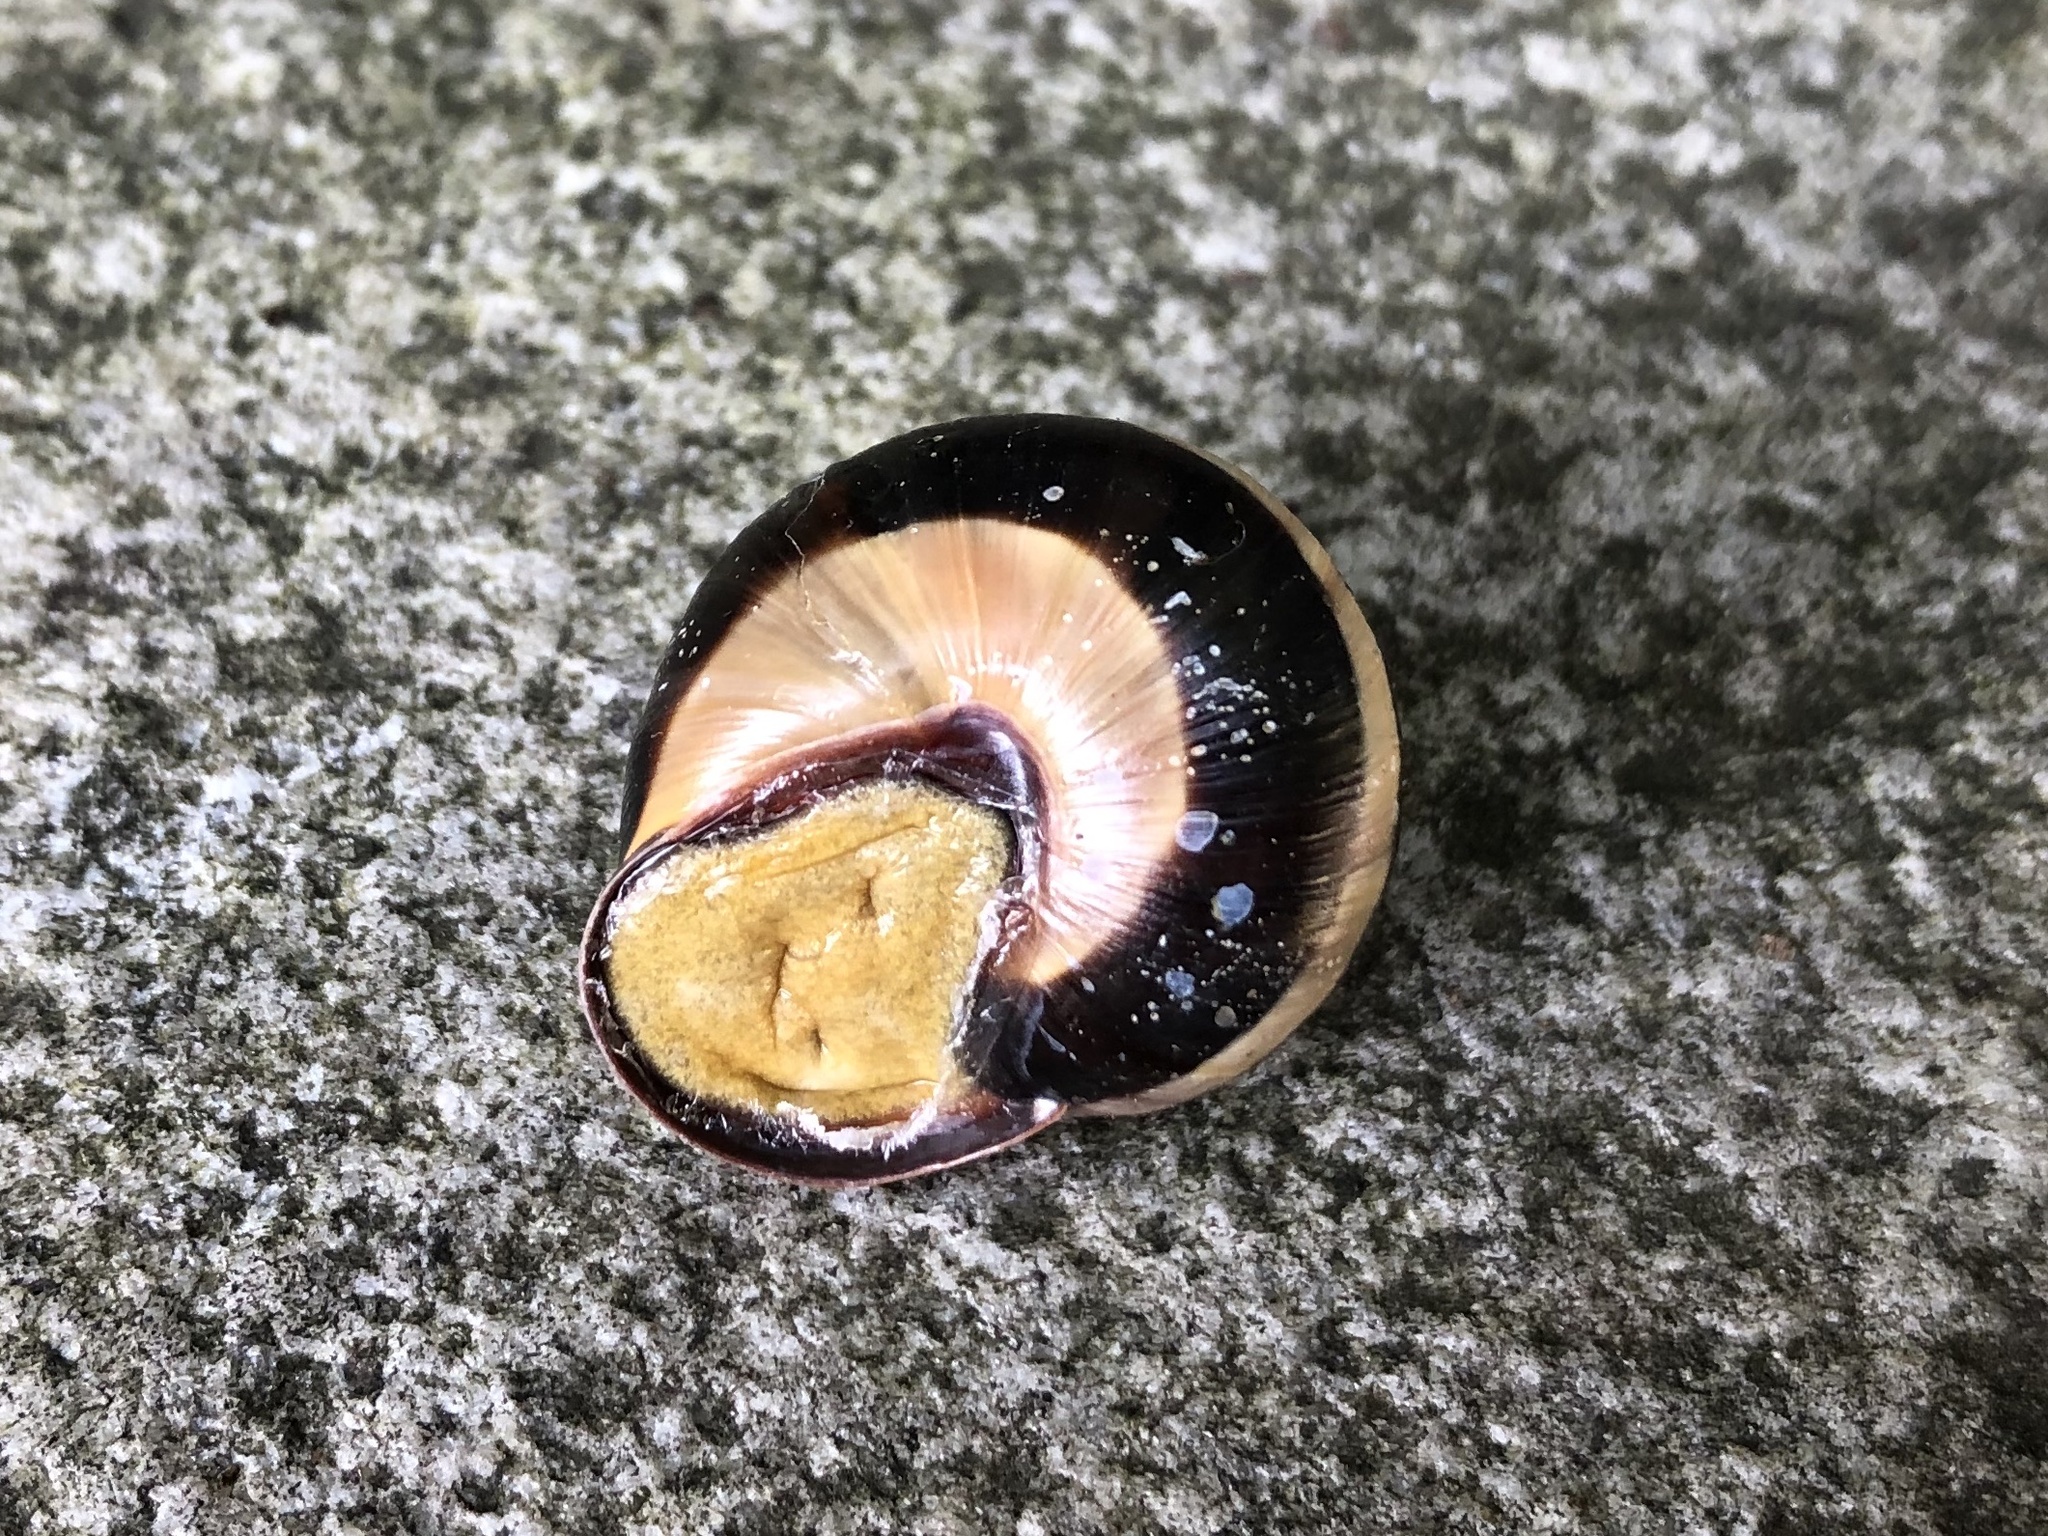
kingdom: Animalia
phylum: Mollusca
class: Gastropoda
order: Stylommatophora
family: Helicidae
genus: Cepaea
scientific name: Cepaea nemoralis
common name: Grovesnail
